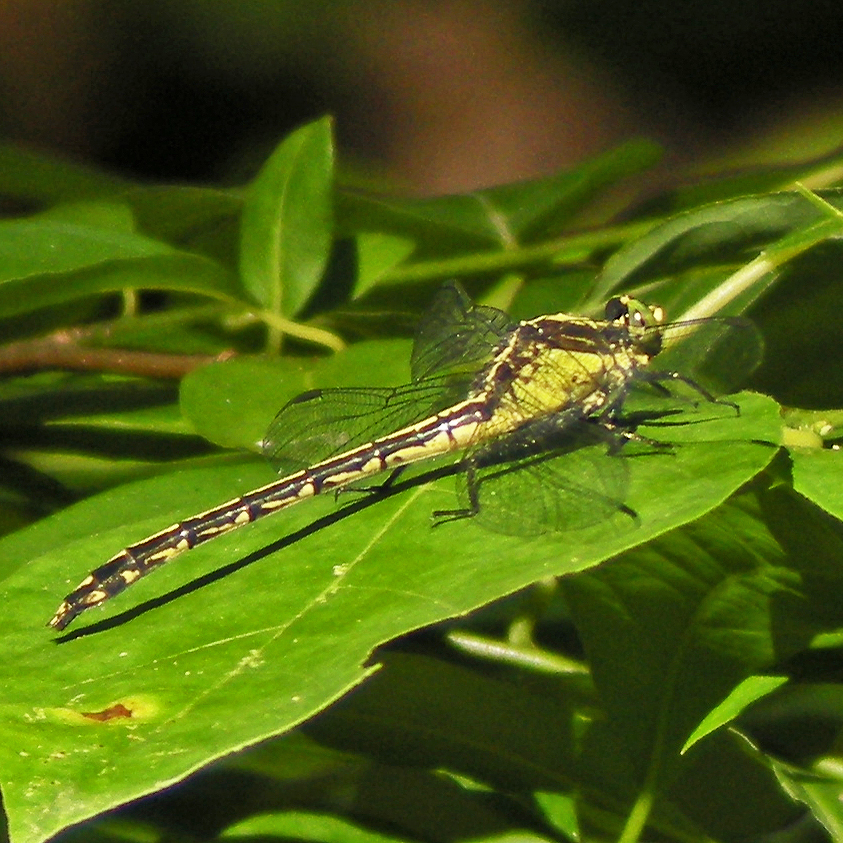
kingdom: Animalia
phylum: Arthropoda
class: Insecta
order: Odonata
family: Gomphidae
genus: Dromogomphus
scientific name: Dromogomphus spinosus
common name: Black-shouldered spinyleg
